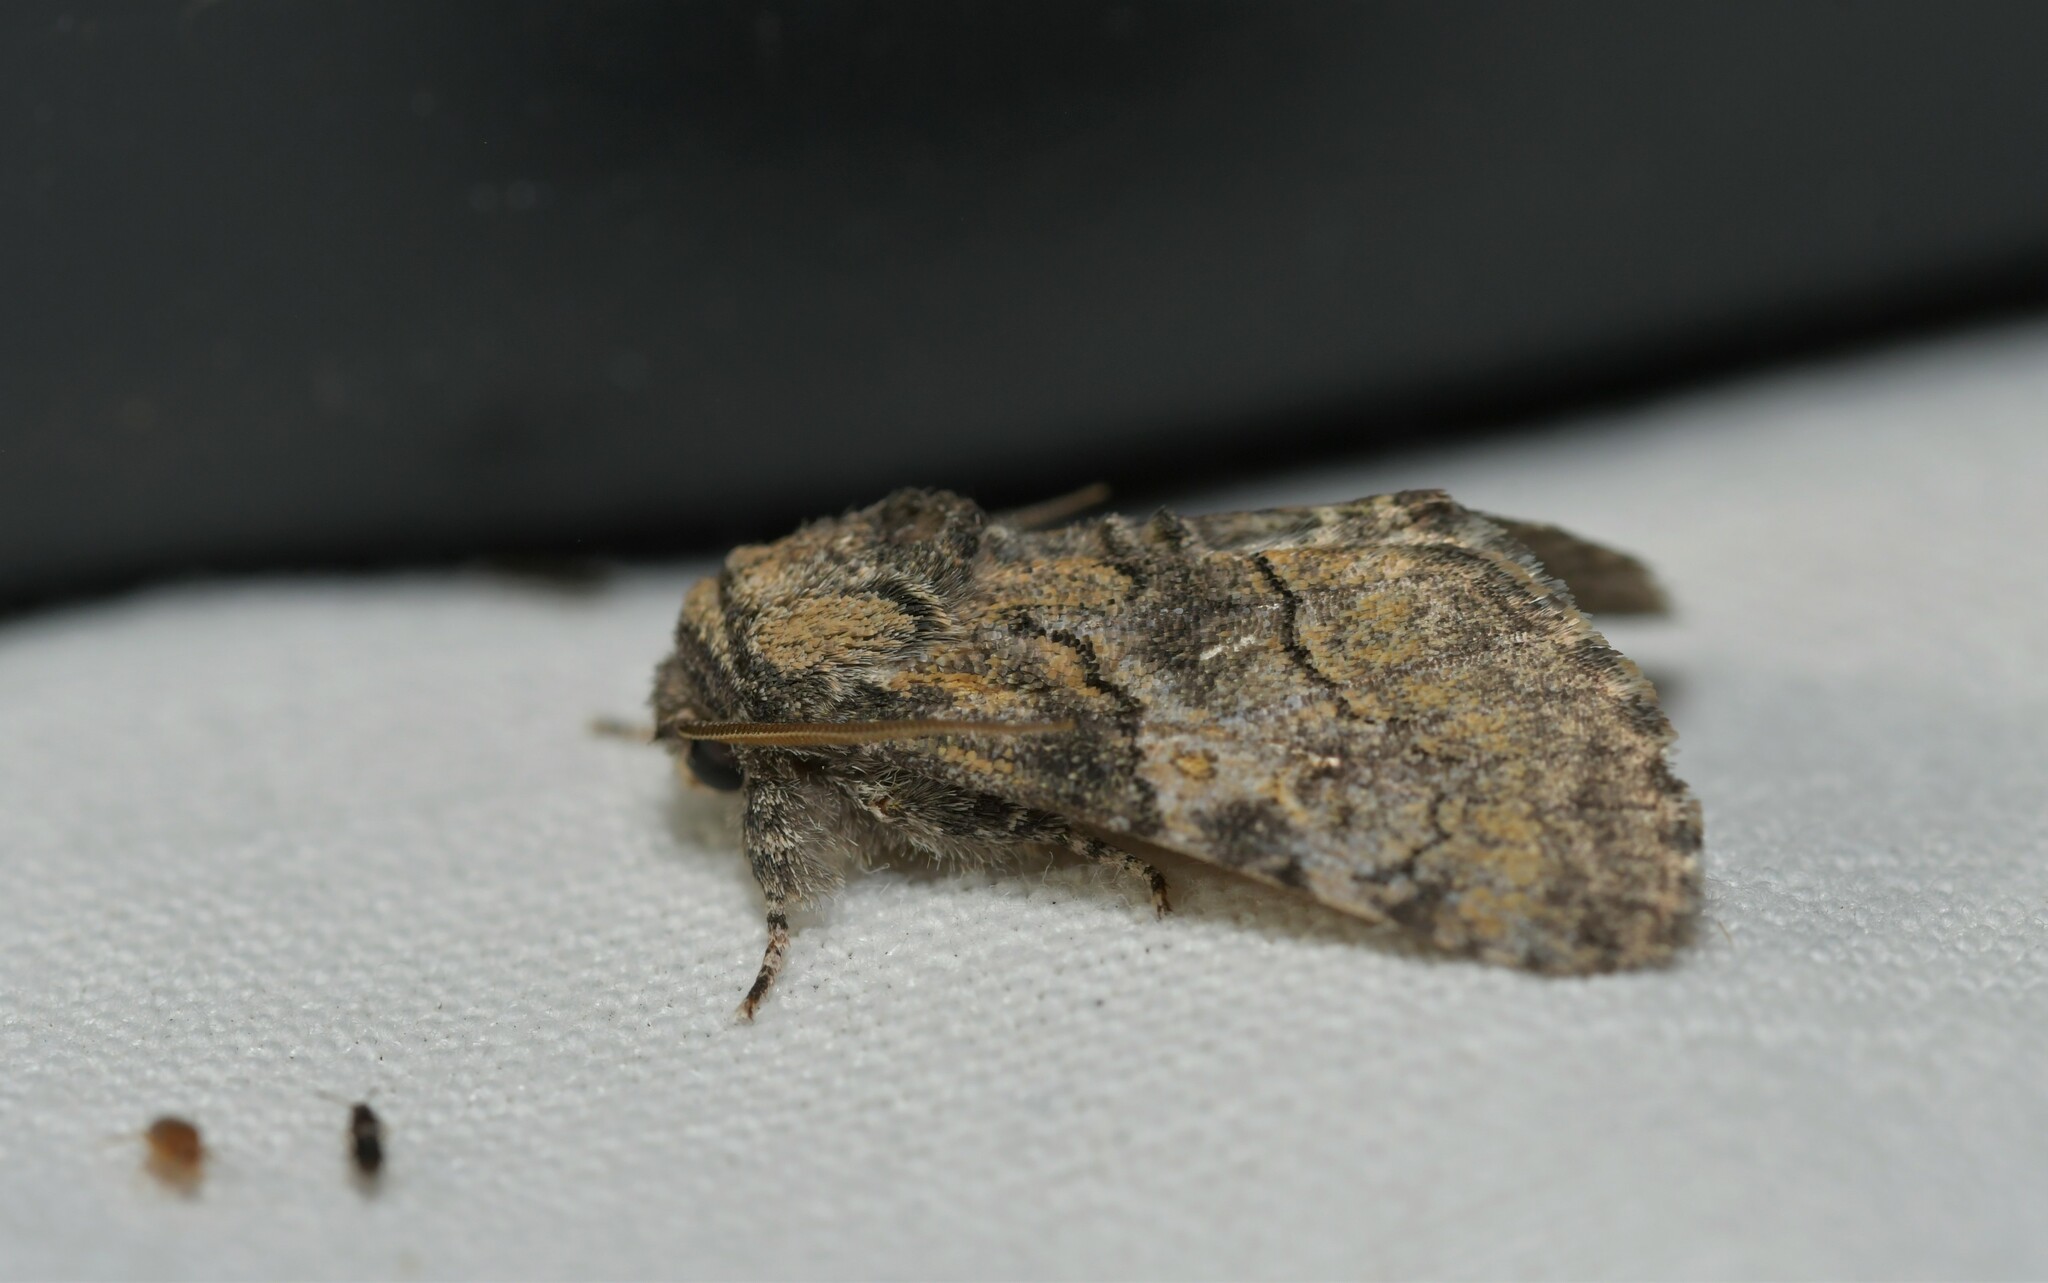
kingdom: Animalia
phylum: Arthropoda
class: Insecta
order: Lepidoptera
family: Noctuidae
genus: Raphia
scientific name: Raphia hybris
